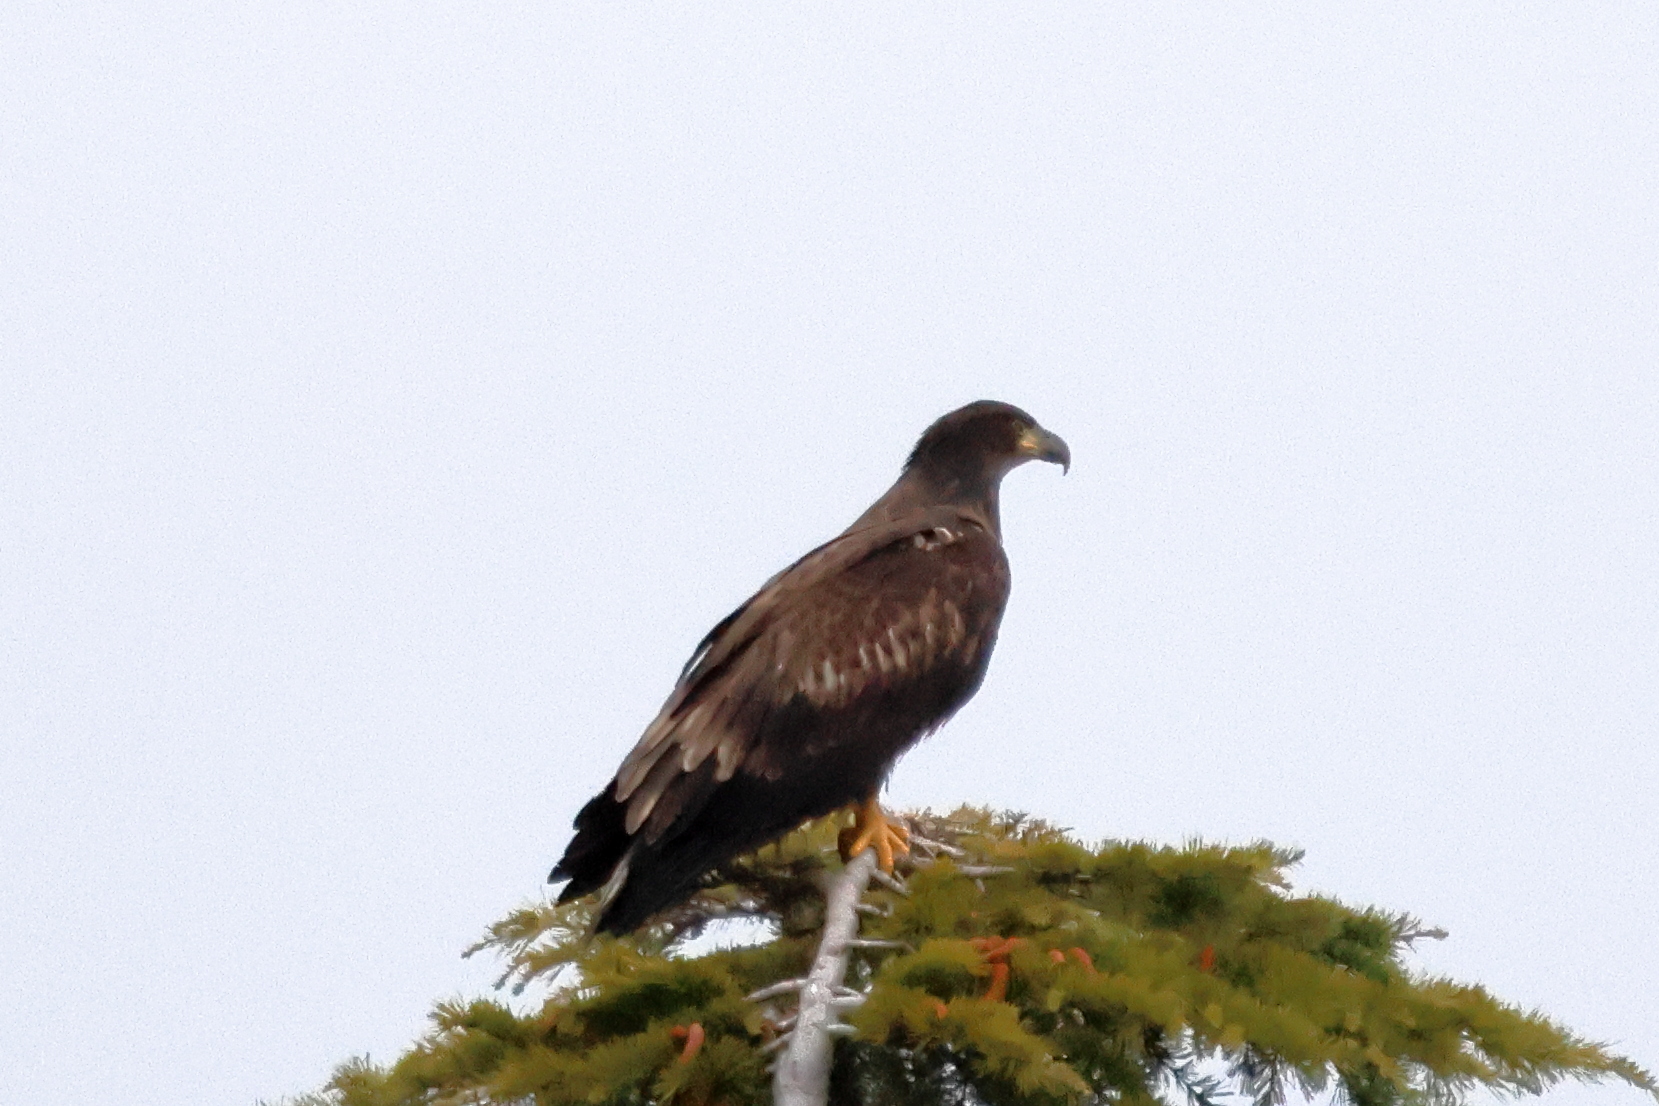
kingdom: Animalia
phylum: Chordata
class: Aves
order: Accipitriformes
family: Accipitridae
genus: Haliaeetus
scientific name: Haliaeetus leucocephalus
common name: Bald eagle
